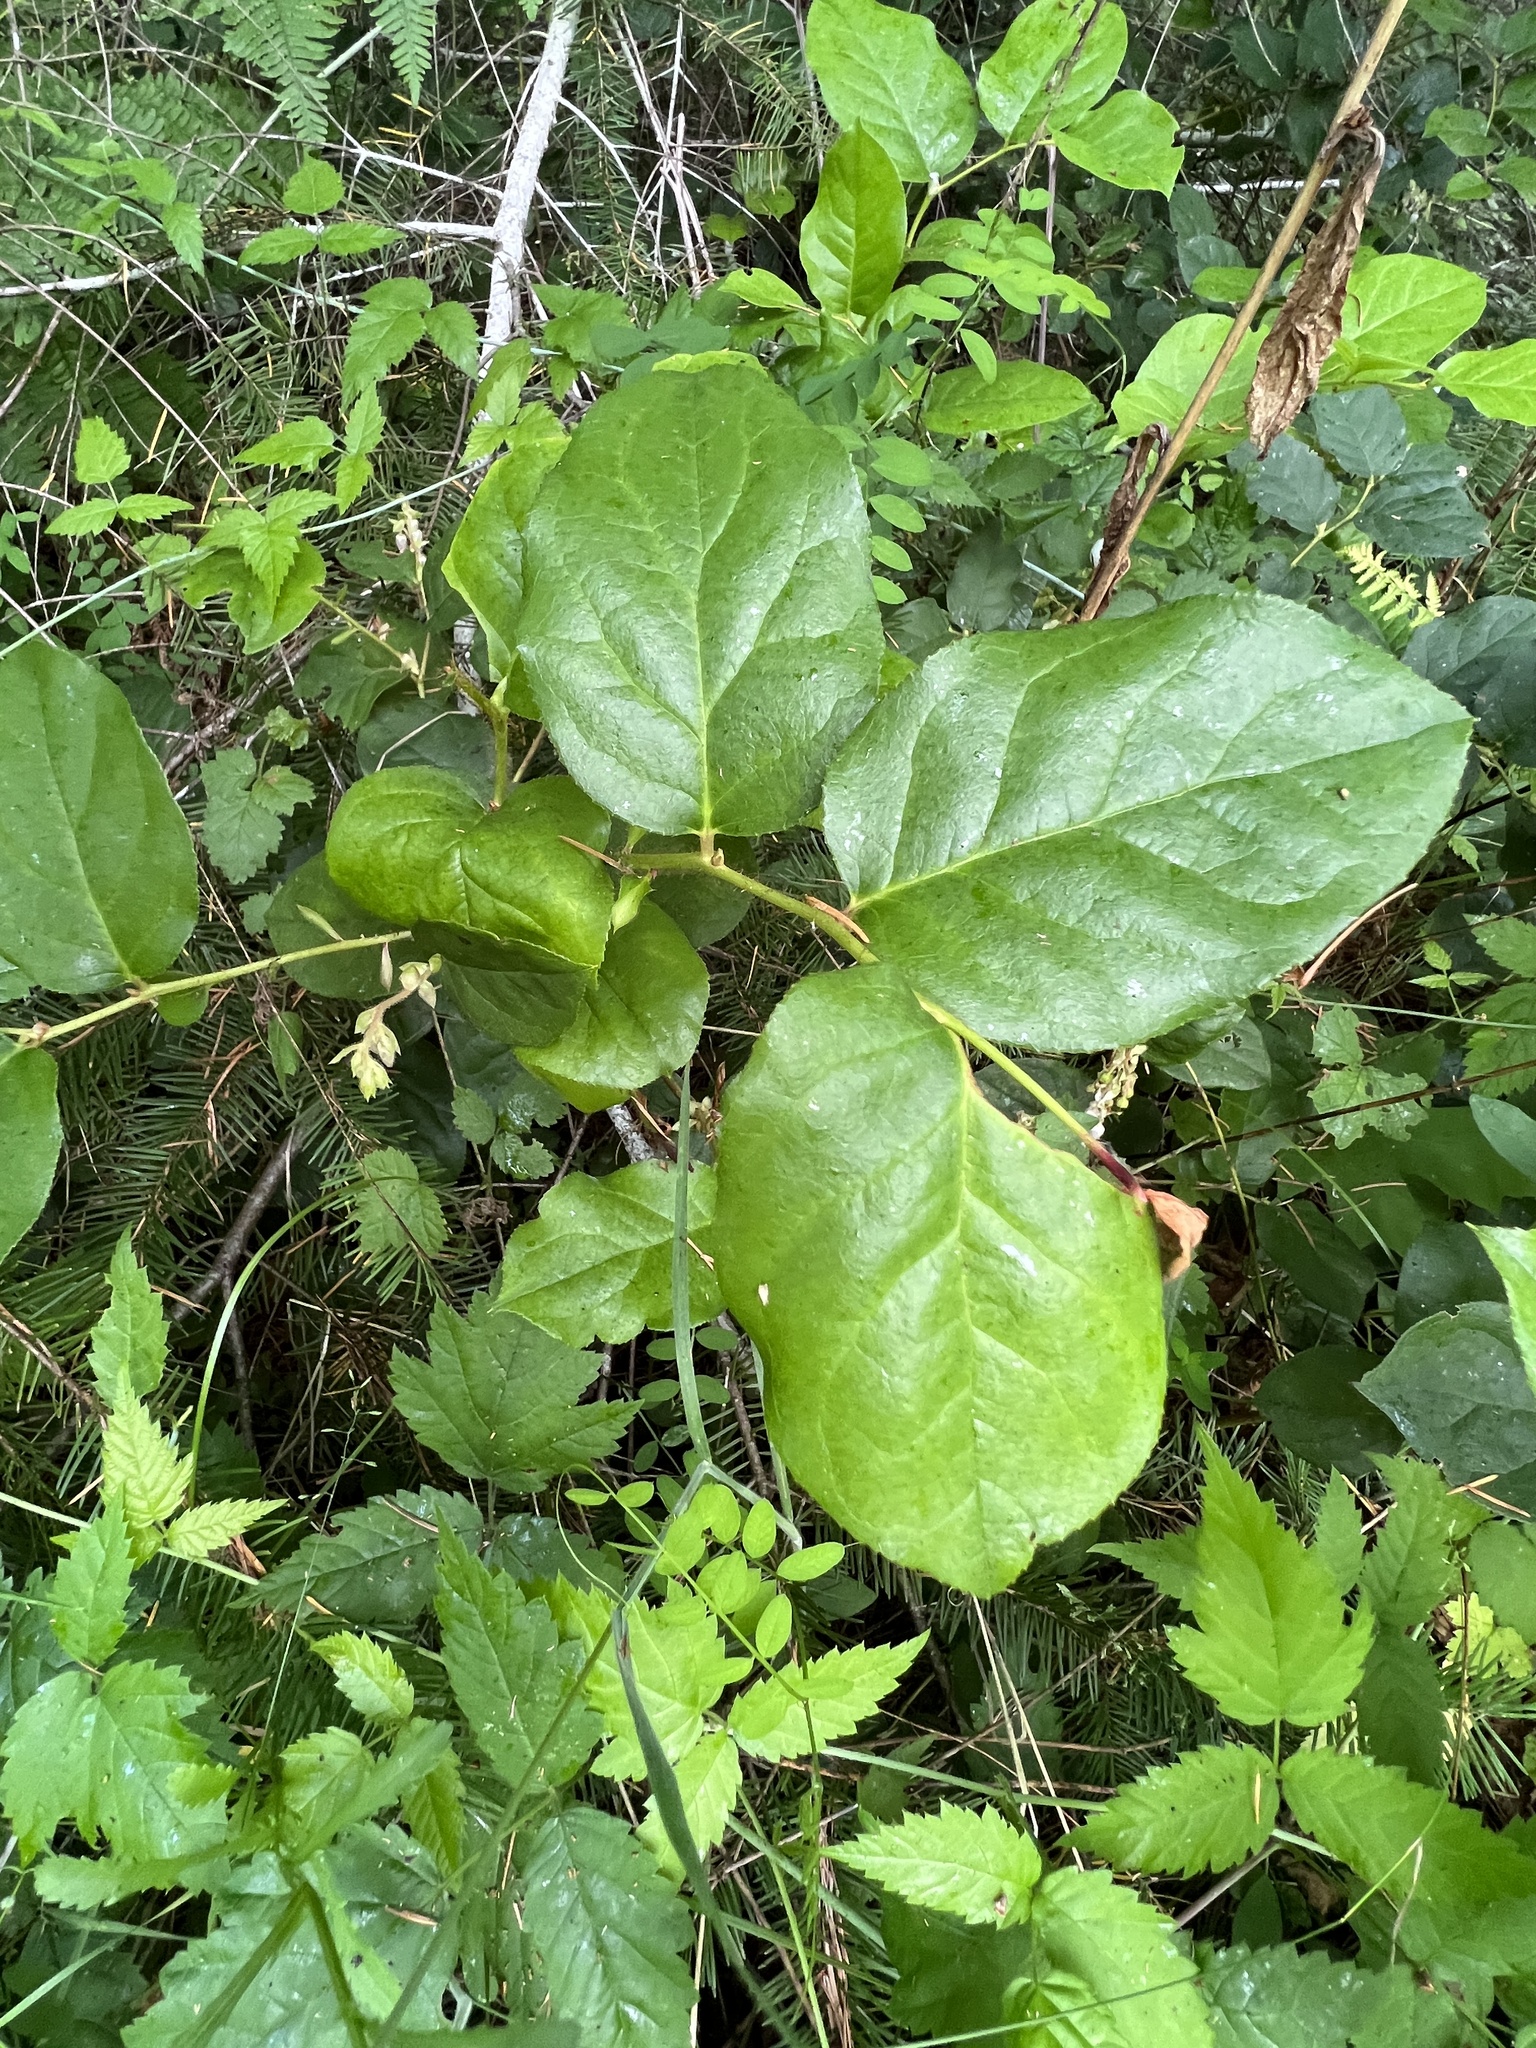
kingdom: Plantae
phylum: Tracheophyta
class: Magnoliopsida
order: Ericales
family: Ericaceae
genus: Gaultheria
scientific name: Gaultheria shallon
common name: Shallon
